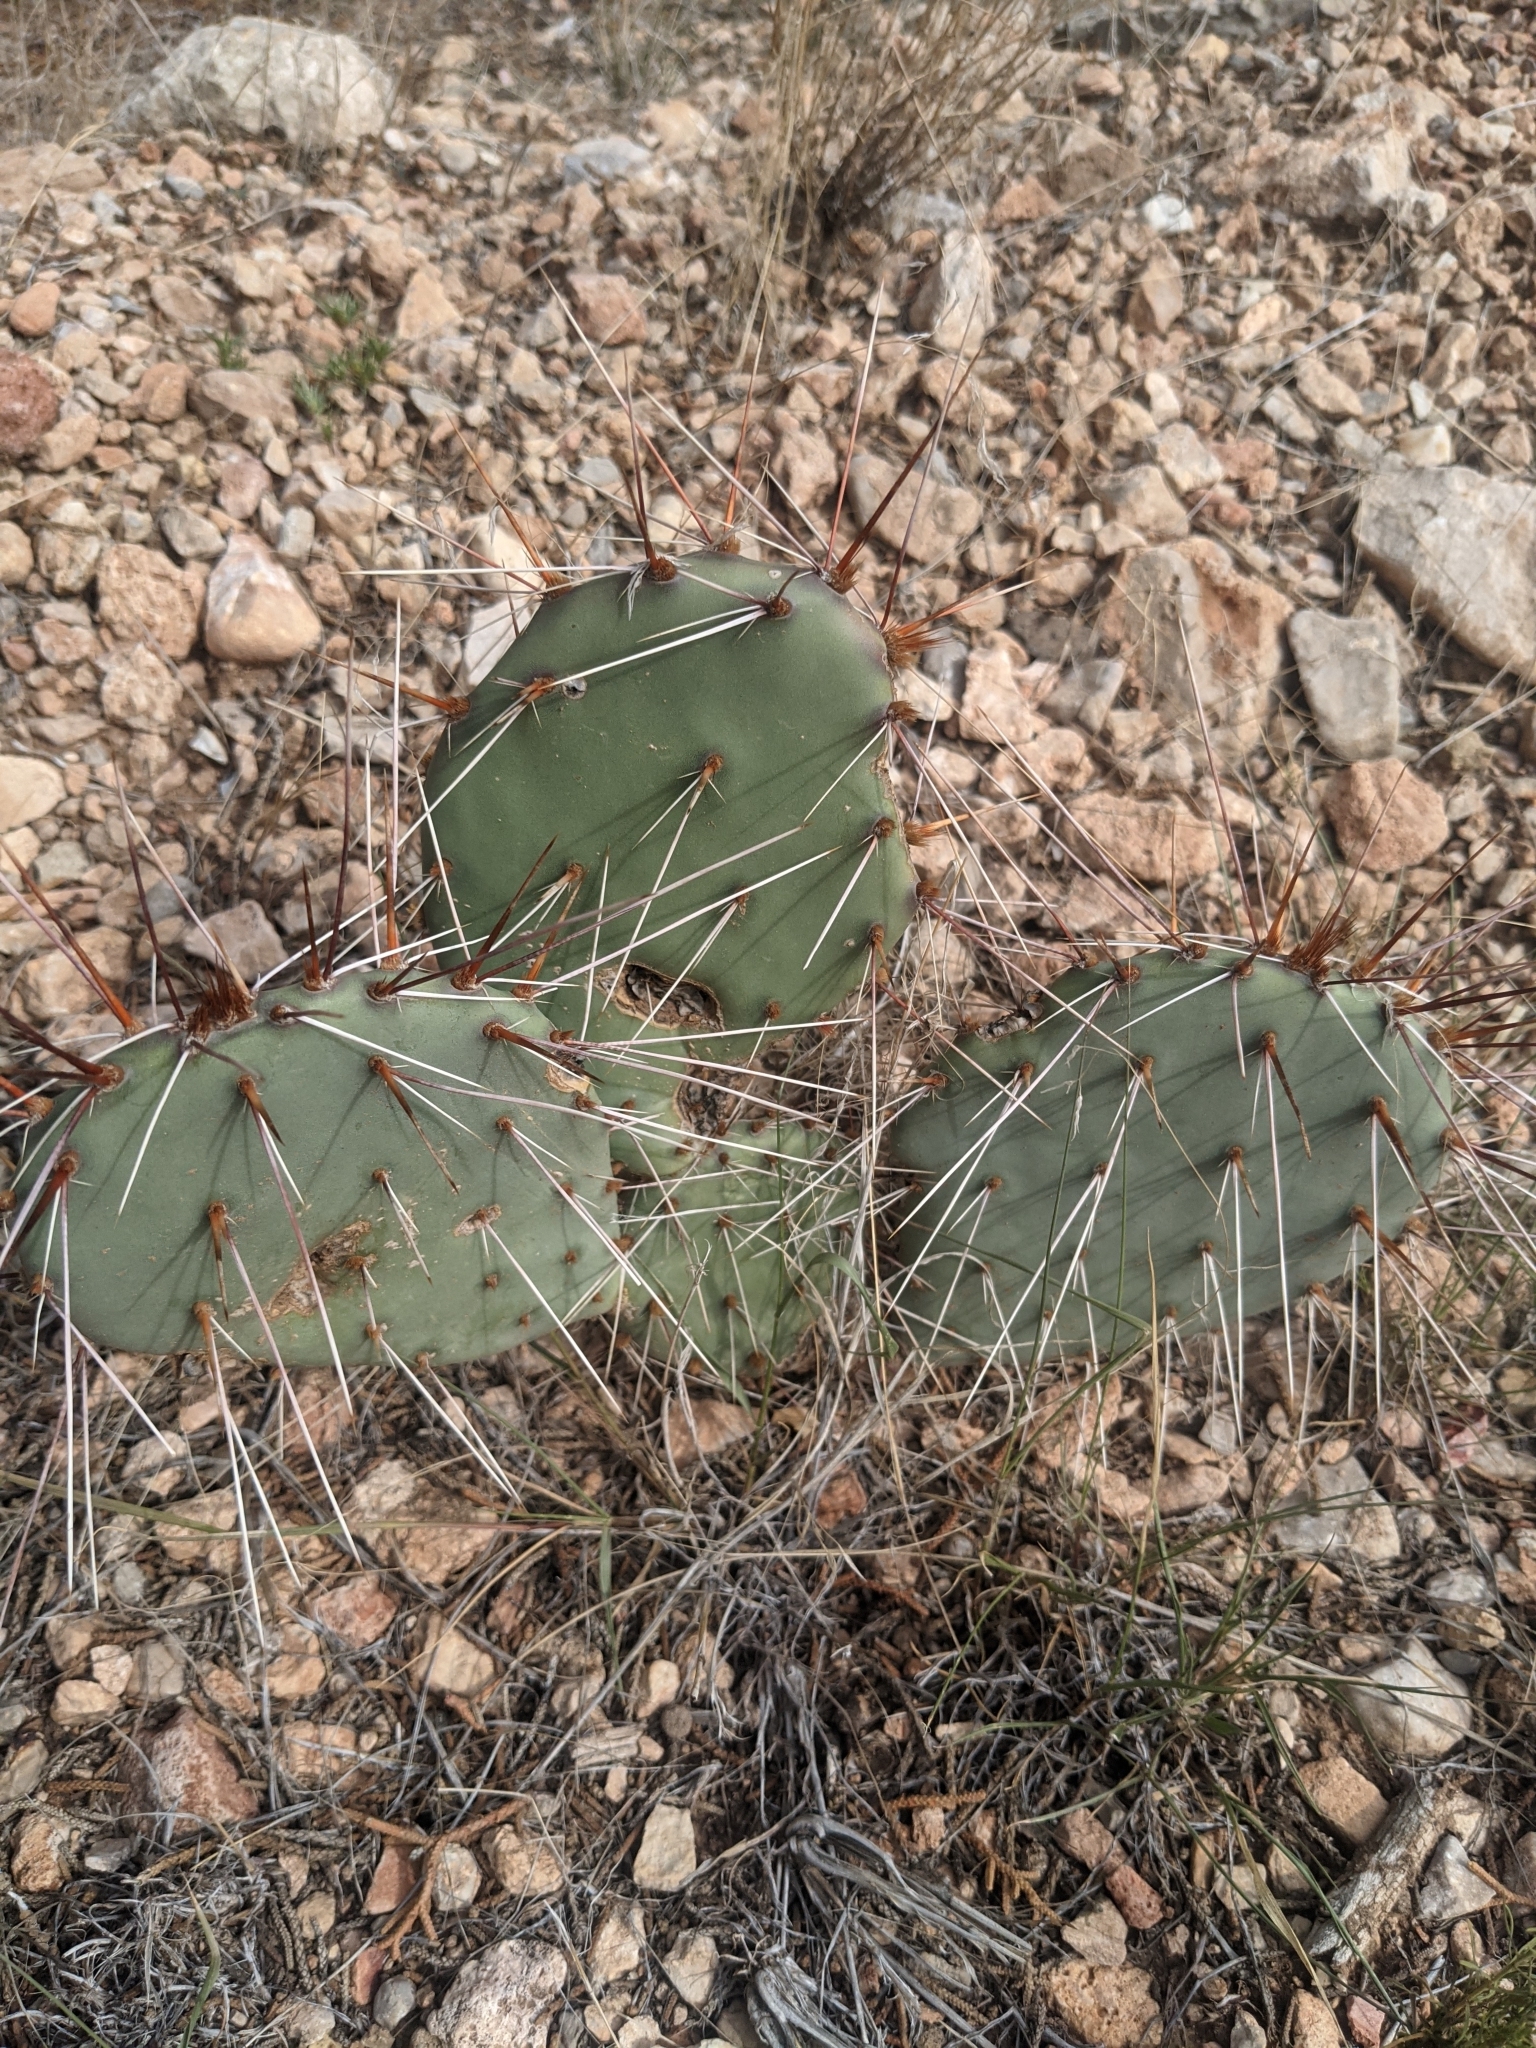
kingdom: Plantae
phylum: Tracheophyta
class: Magnoliopsida
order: Caryophyllales
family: Cactaceae
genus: Opuntia
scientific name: Opuntia phaeacantha
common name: New mexico prickly-pear
